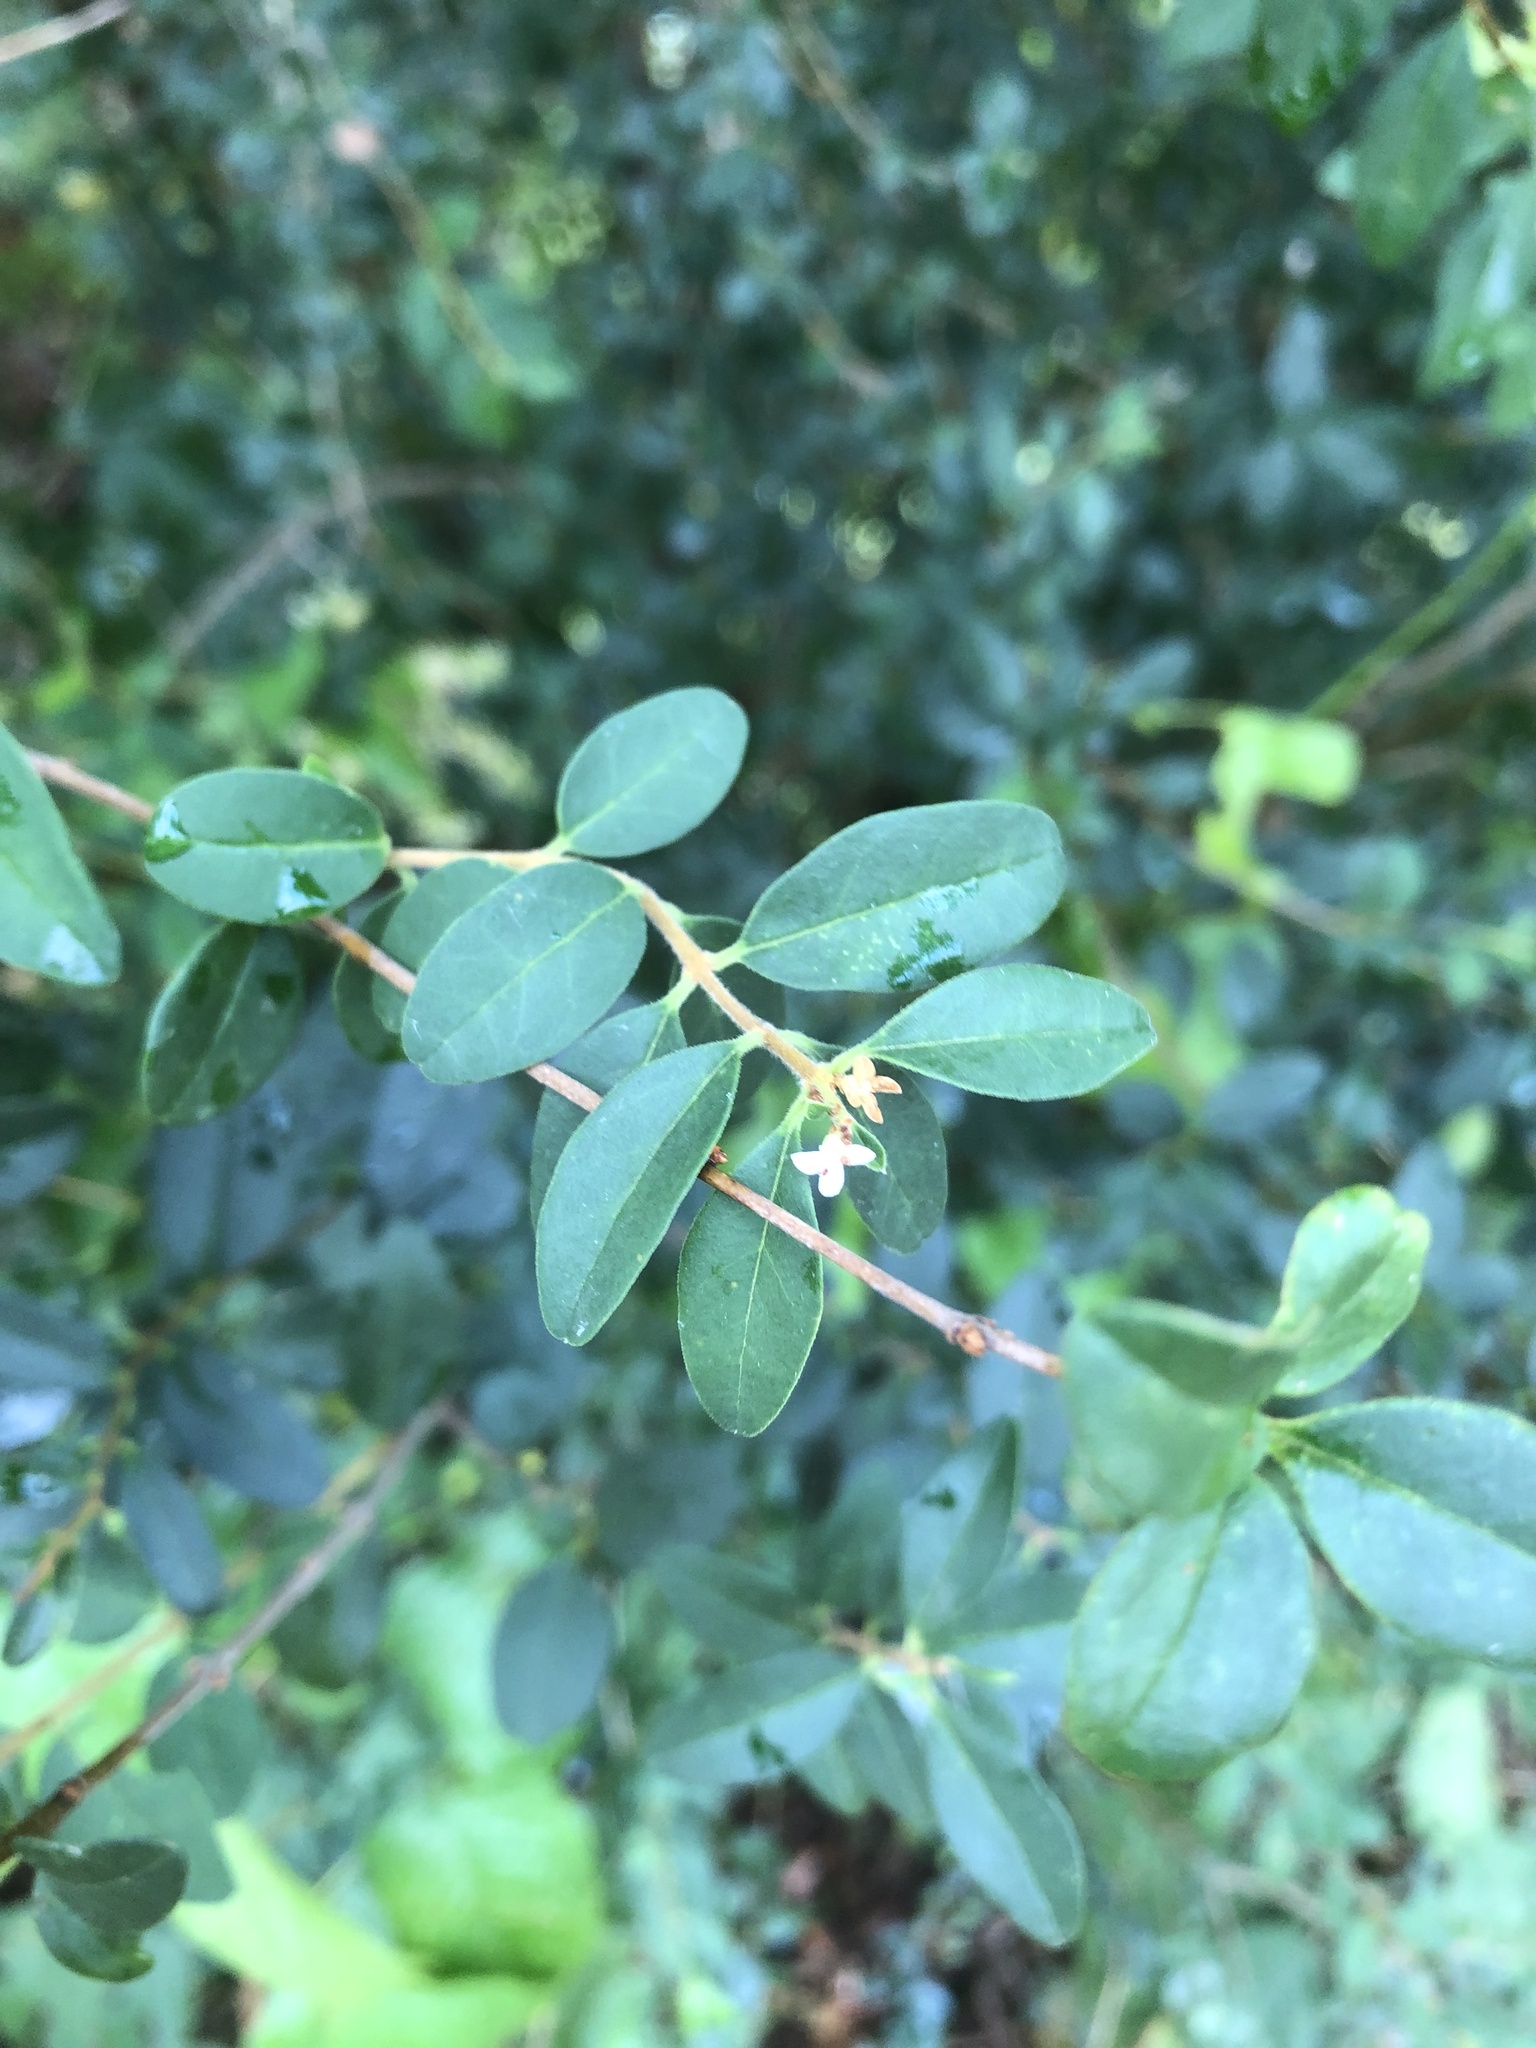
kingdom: Plantae
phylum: Tracheophyta
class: Magnoliopsida
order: Lamiales
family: Oleaceae
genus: Ligustrum
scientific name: Ligustrum sinense
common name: Chinese privet
